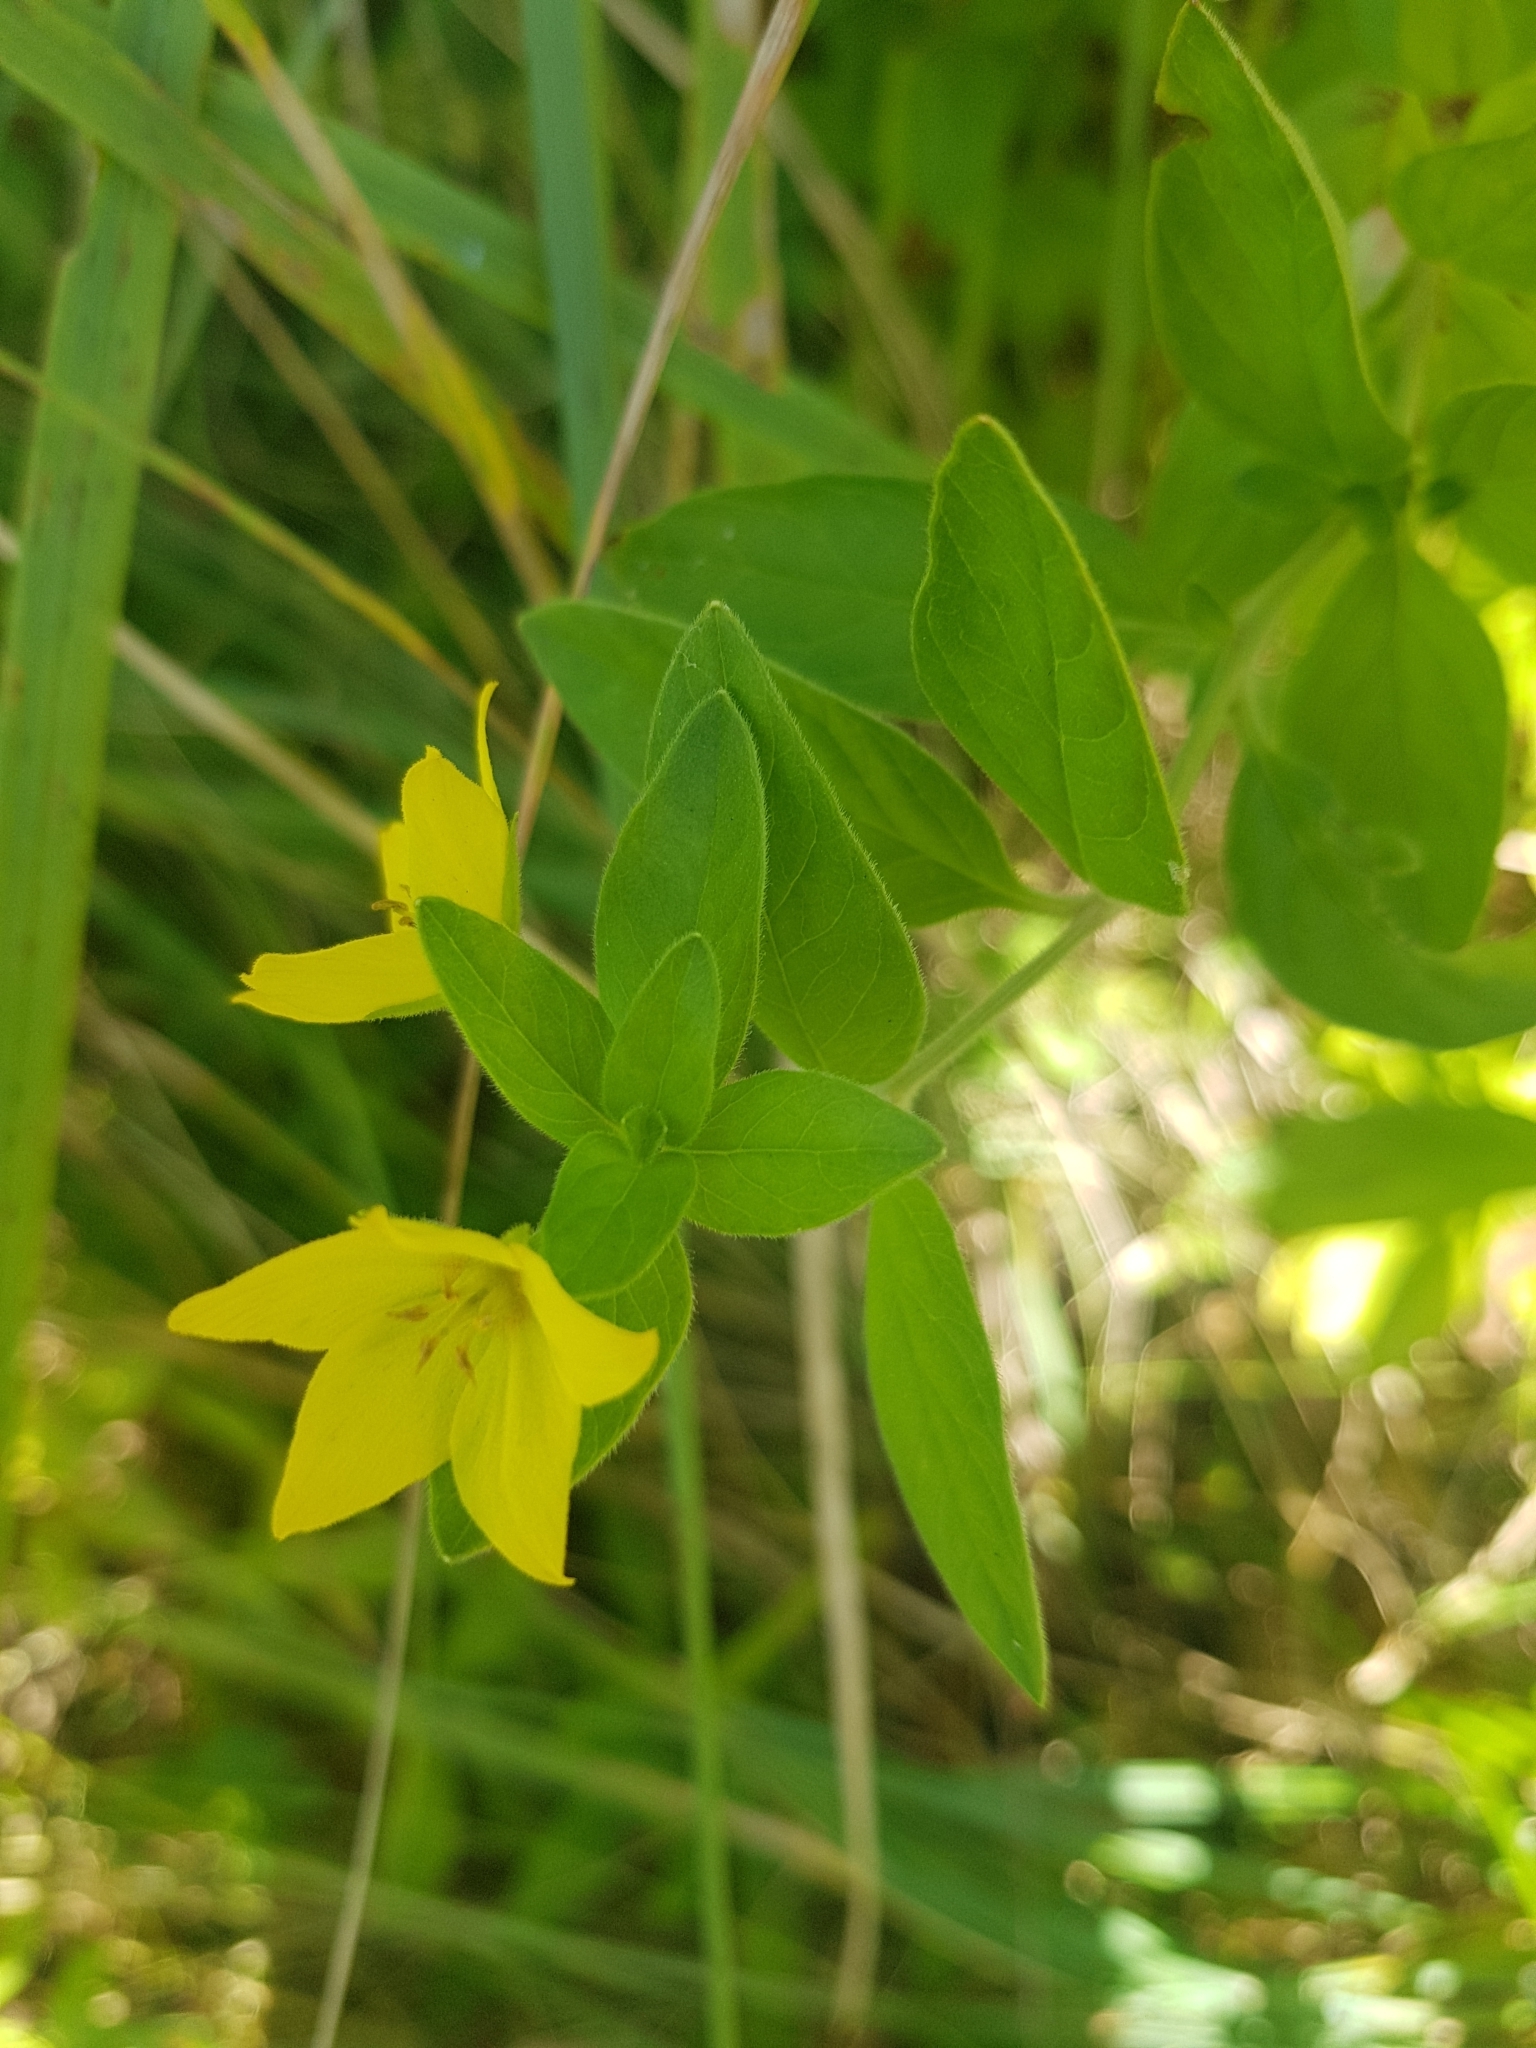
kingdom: Plantae
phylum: Tracheophyta
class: Magnoliopsida
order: Ericales
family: Primulaceae
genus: Lysimachia
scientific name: Lysimachia vulgaris
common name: Yellow loosestrife
